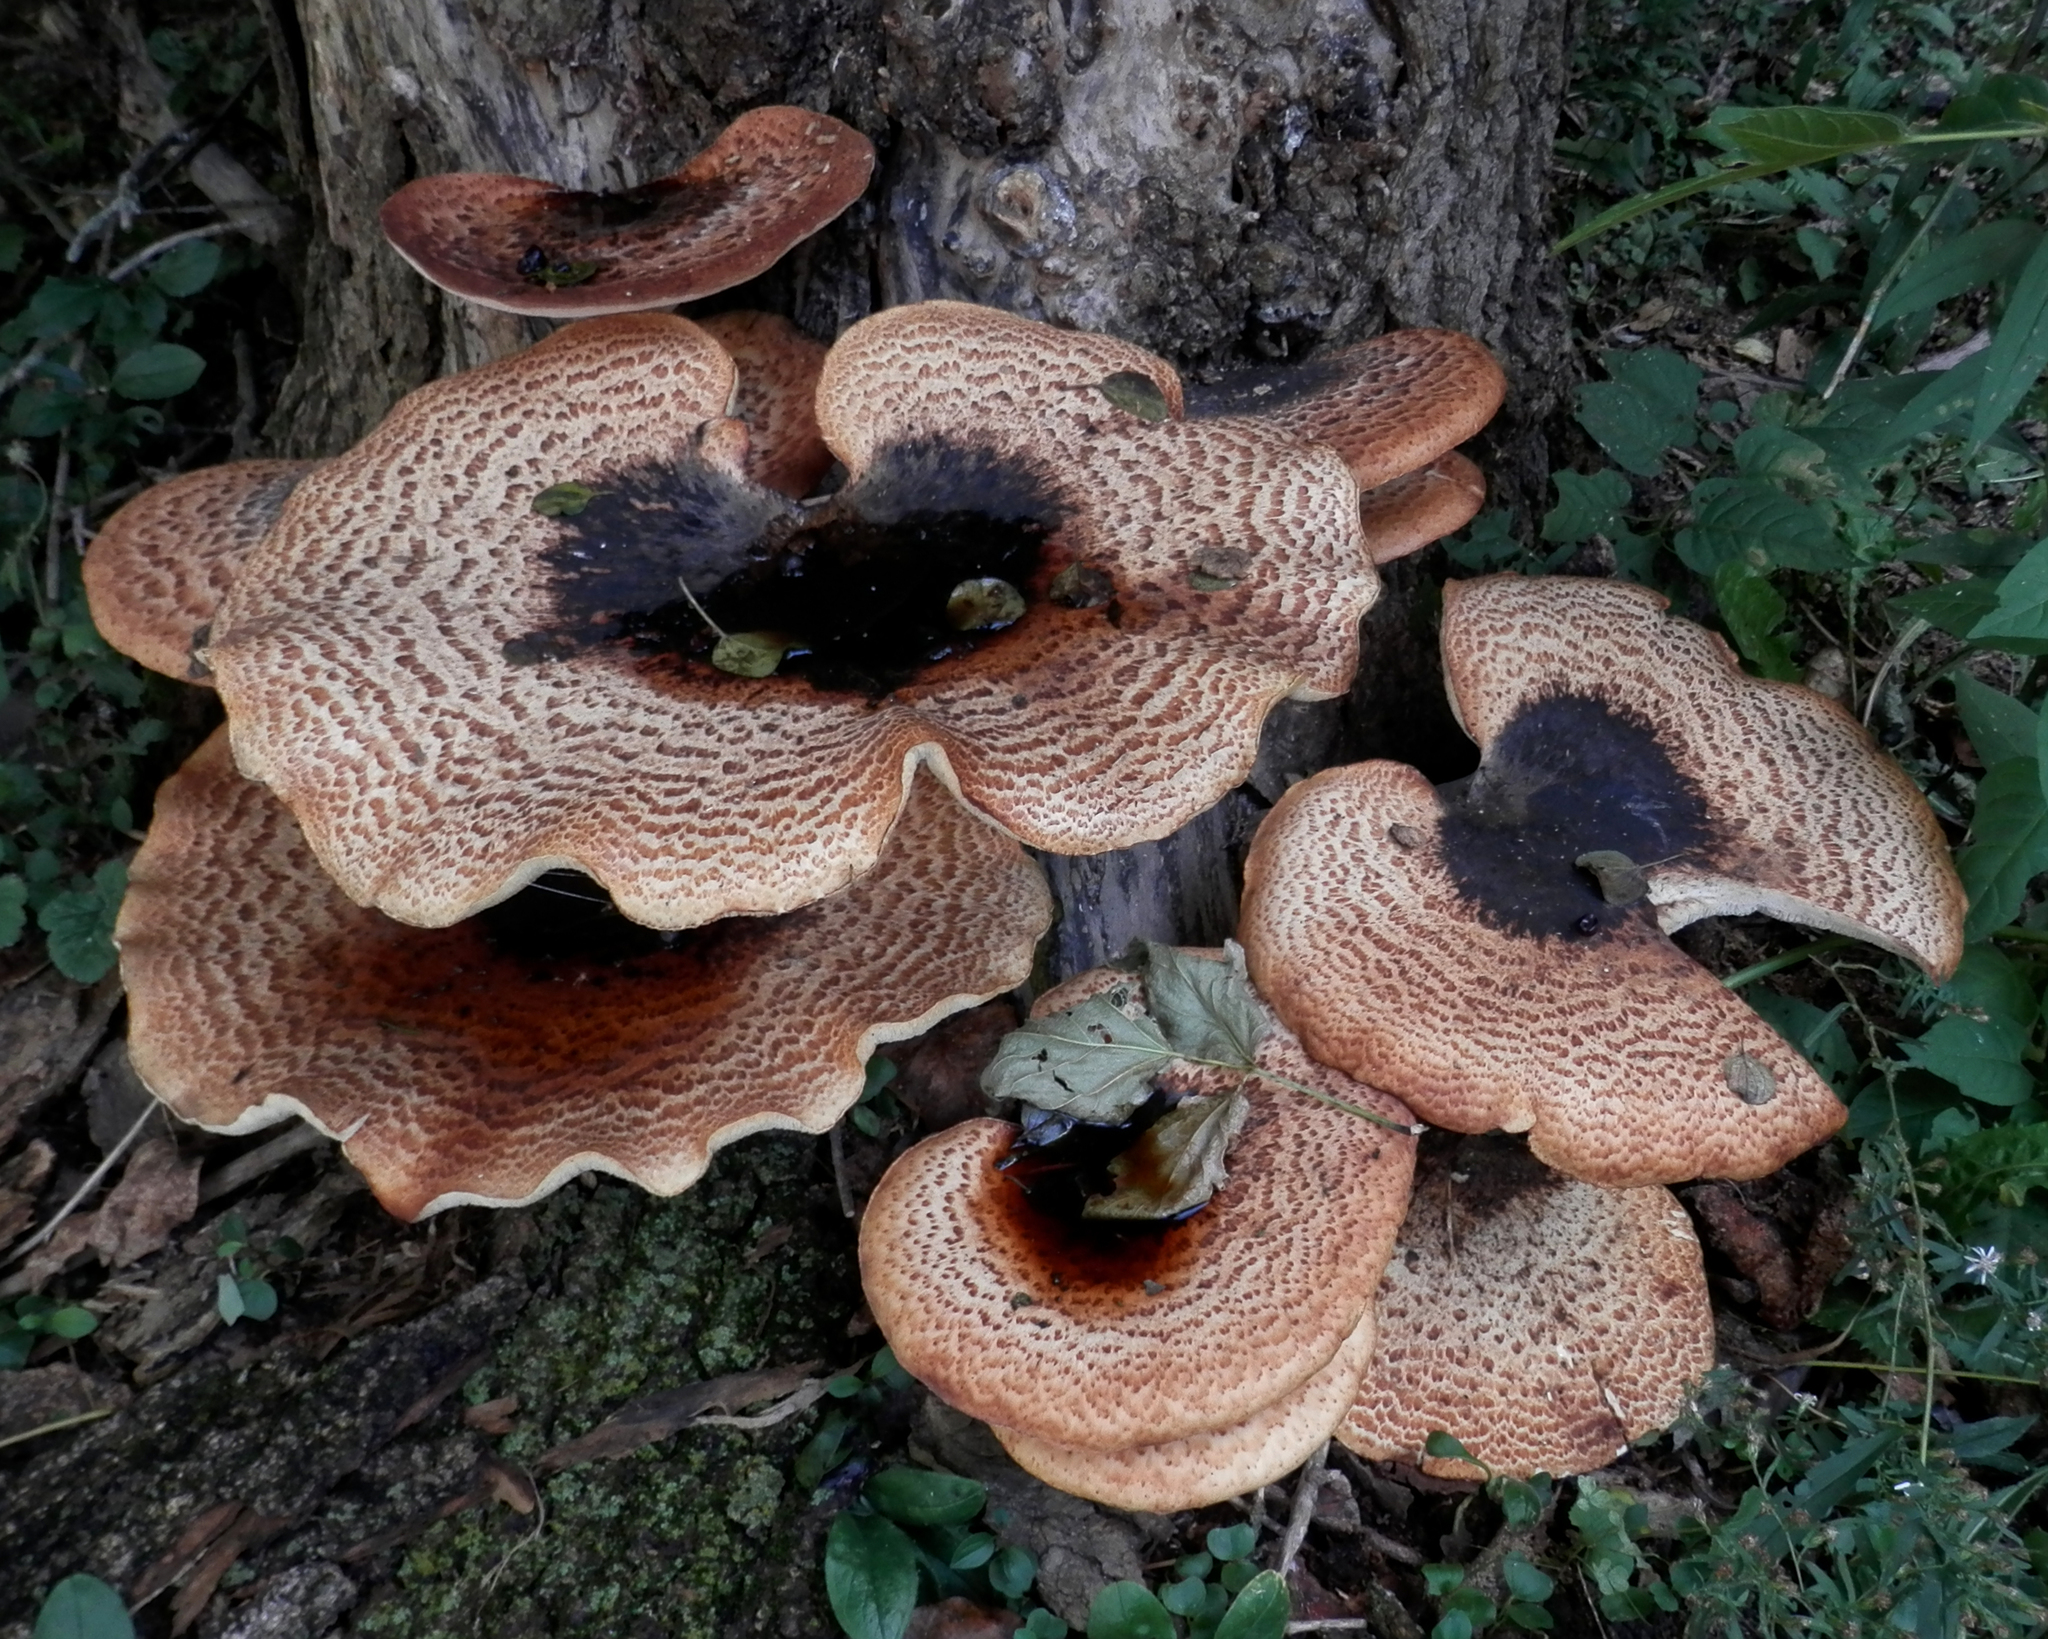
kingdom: Fungi
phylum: Basidiomycota
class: Agaricomycetes
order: Polyporales
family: Polyporaceae
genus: Cerioporus
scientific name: Cerioporus squamosus
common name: Dryad's saddle
